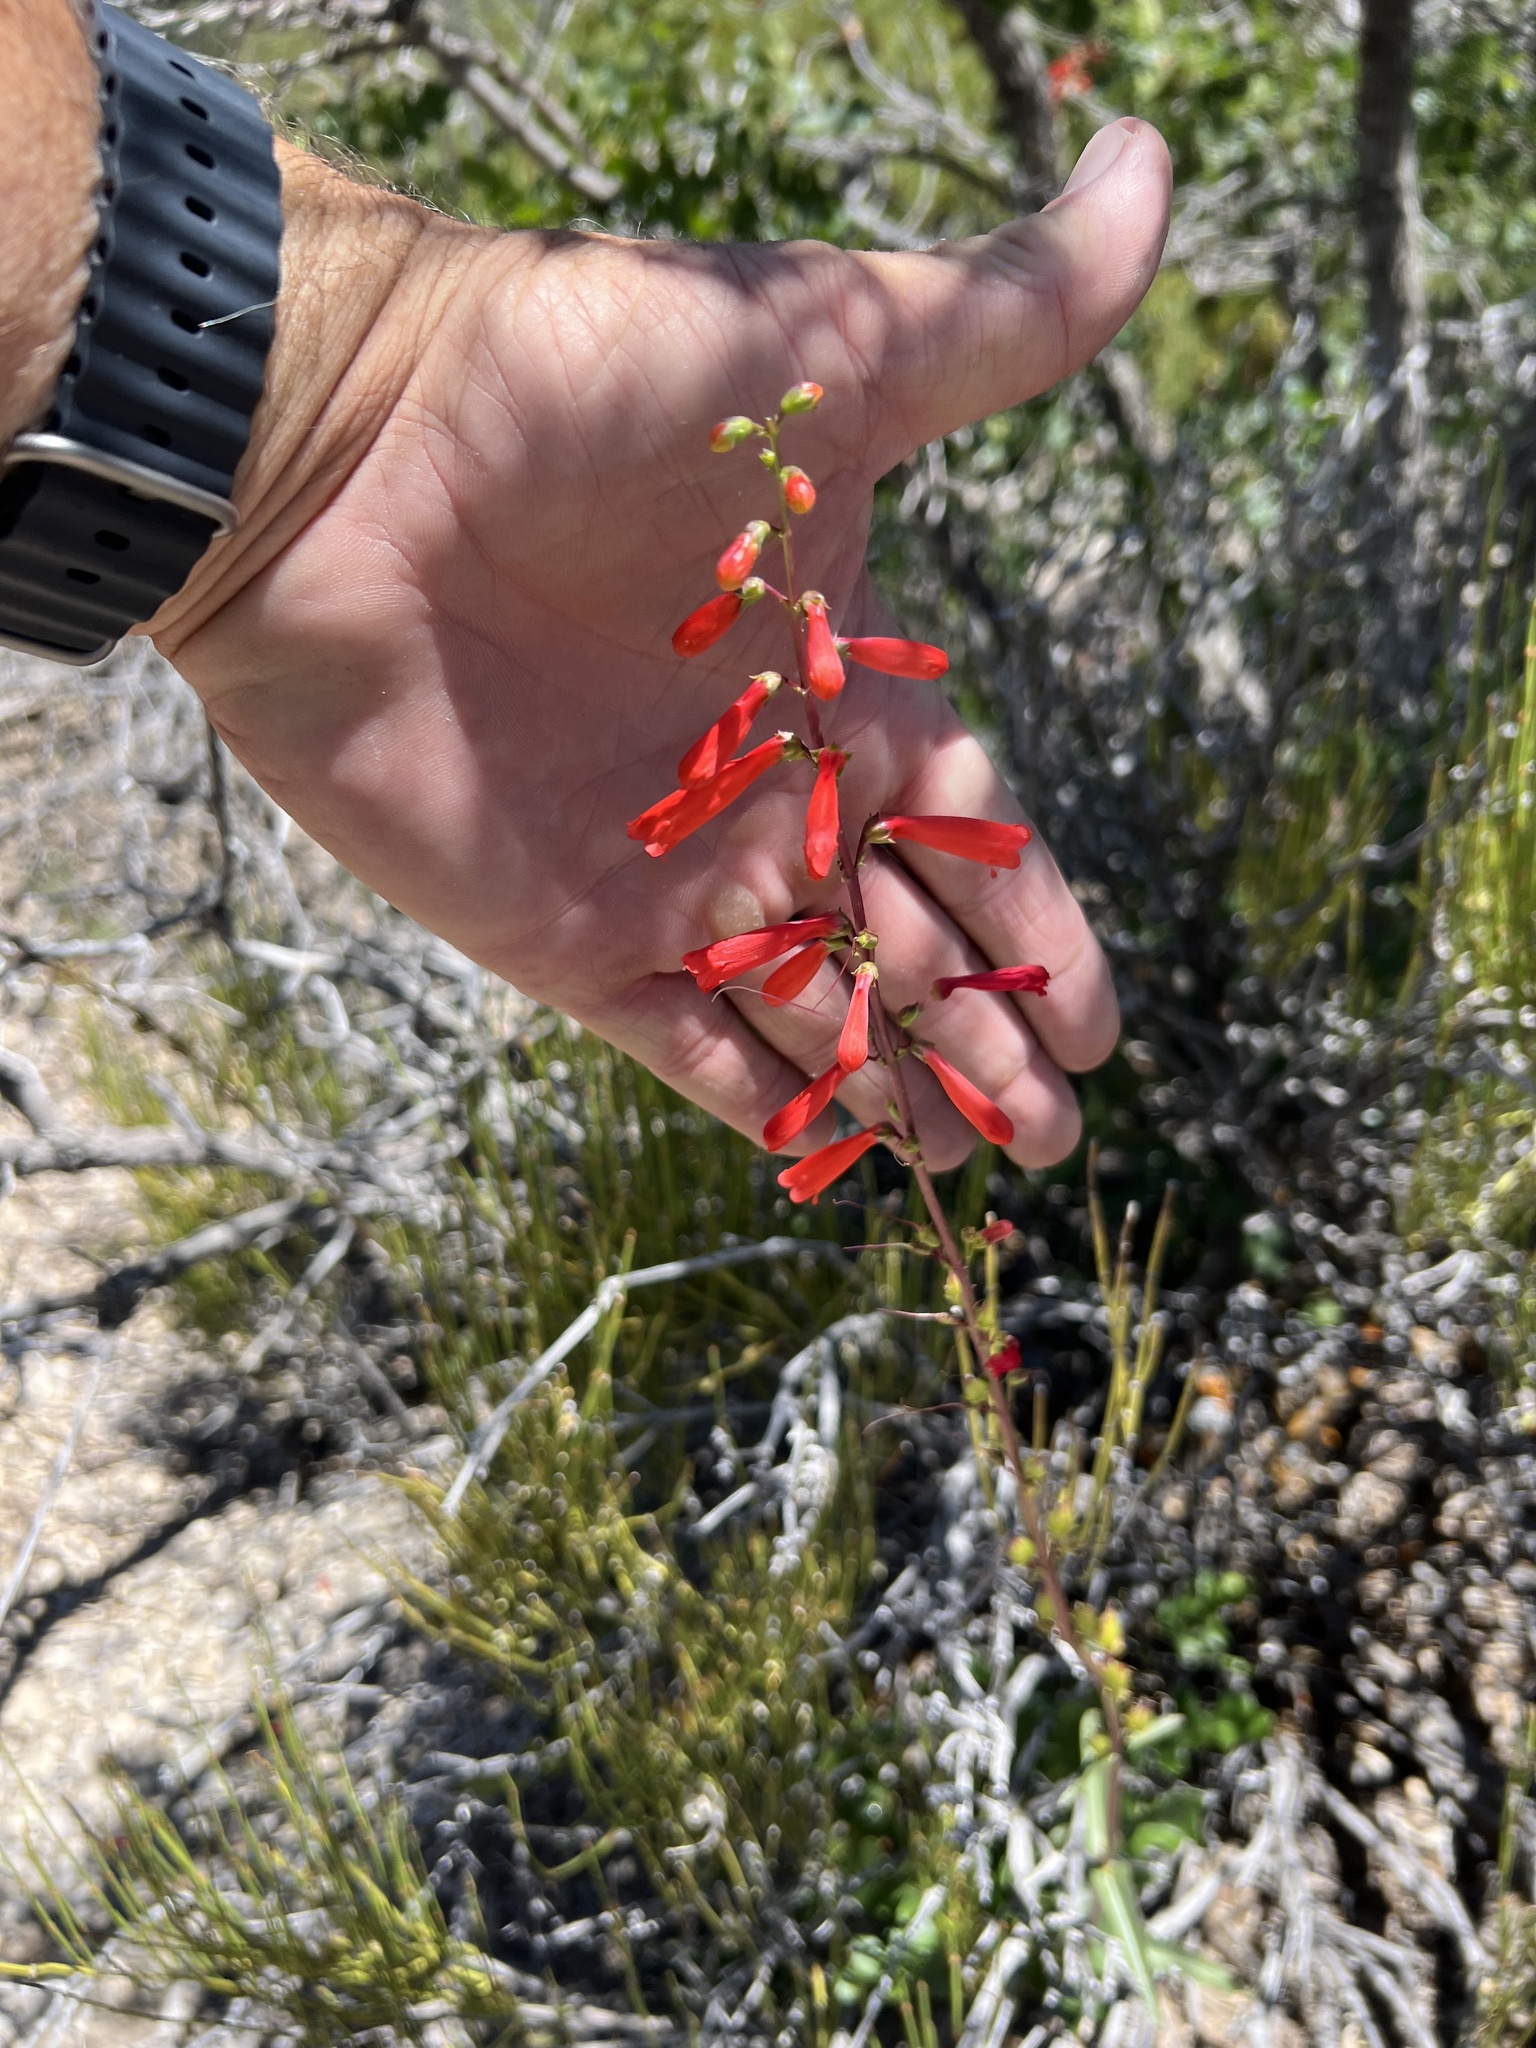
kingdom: Plantae
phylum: Tracheophyta
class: Magnoliopsida
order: Lamiales
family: Plantaginaceae
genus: Penstemon
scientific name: Penstemon eatonii
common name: Eaton's penstemon
